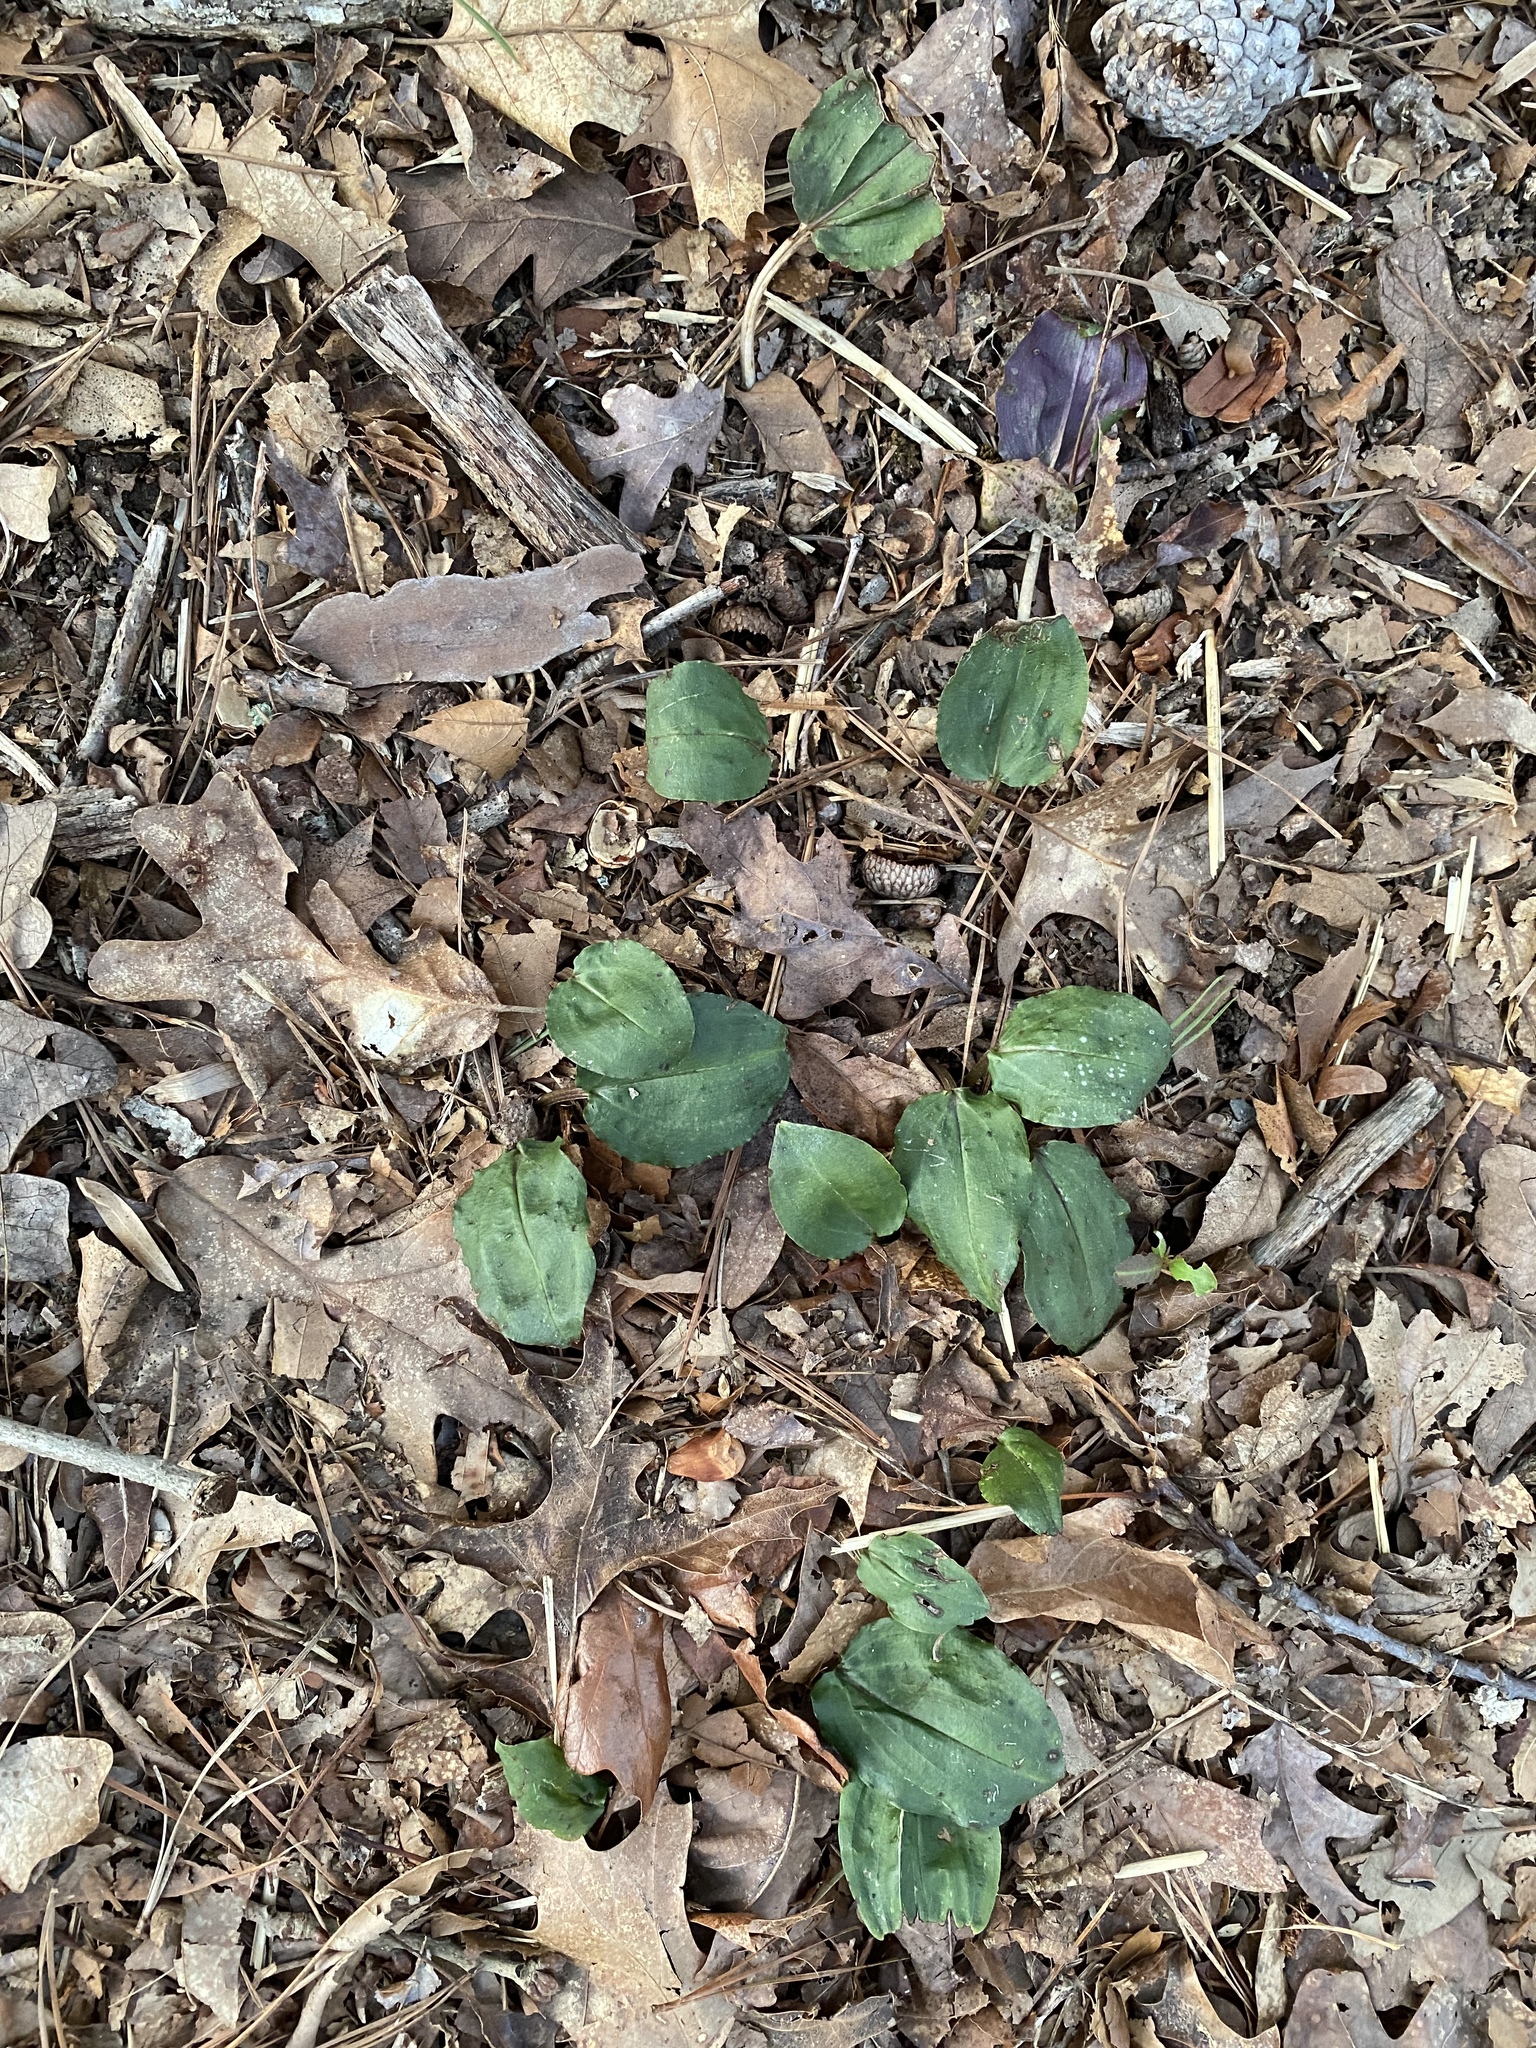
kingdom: Plantae
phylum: Tracheophyta
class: Liliopsida
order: Asparagales
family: Orchidaceae
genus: Tipularia
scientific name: Tipularia discolor
